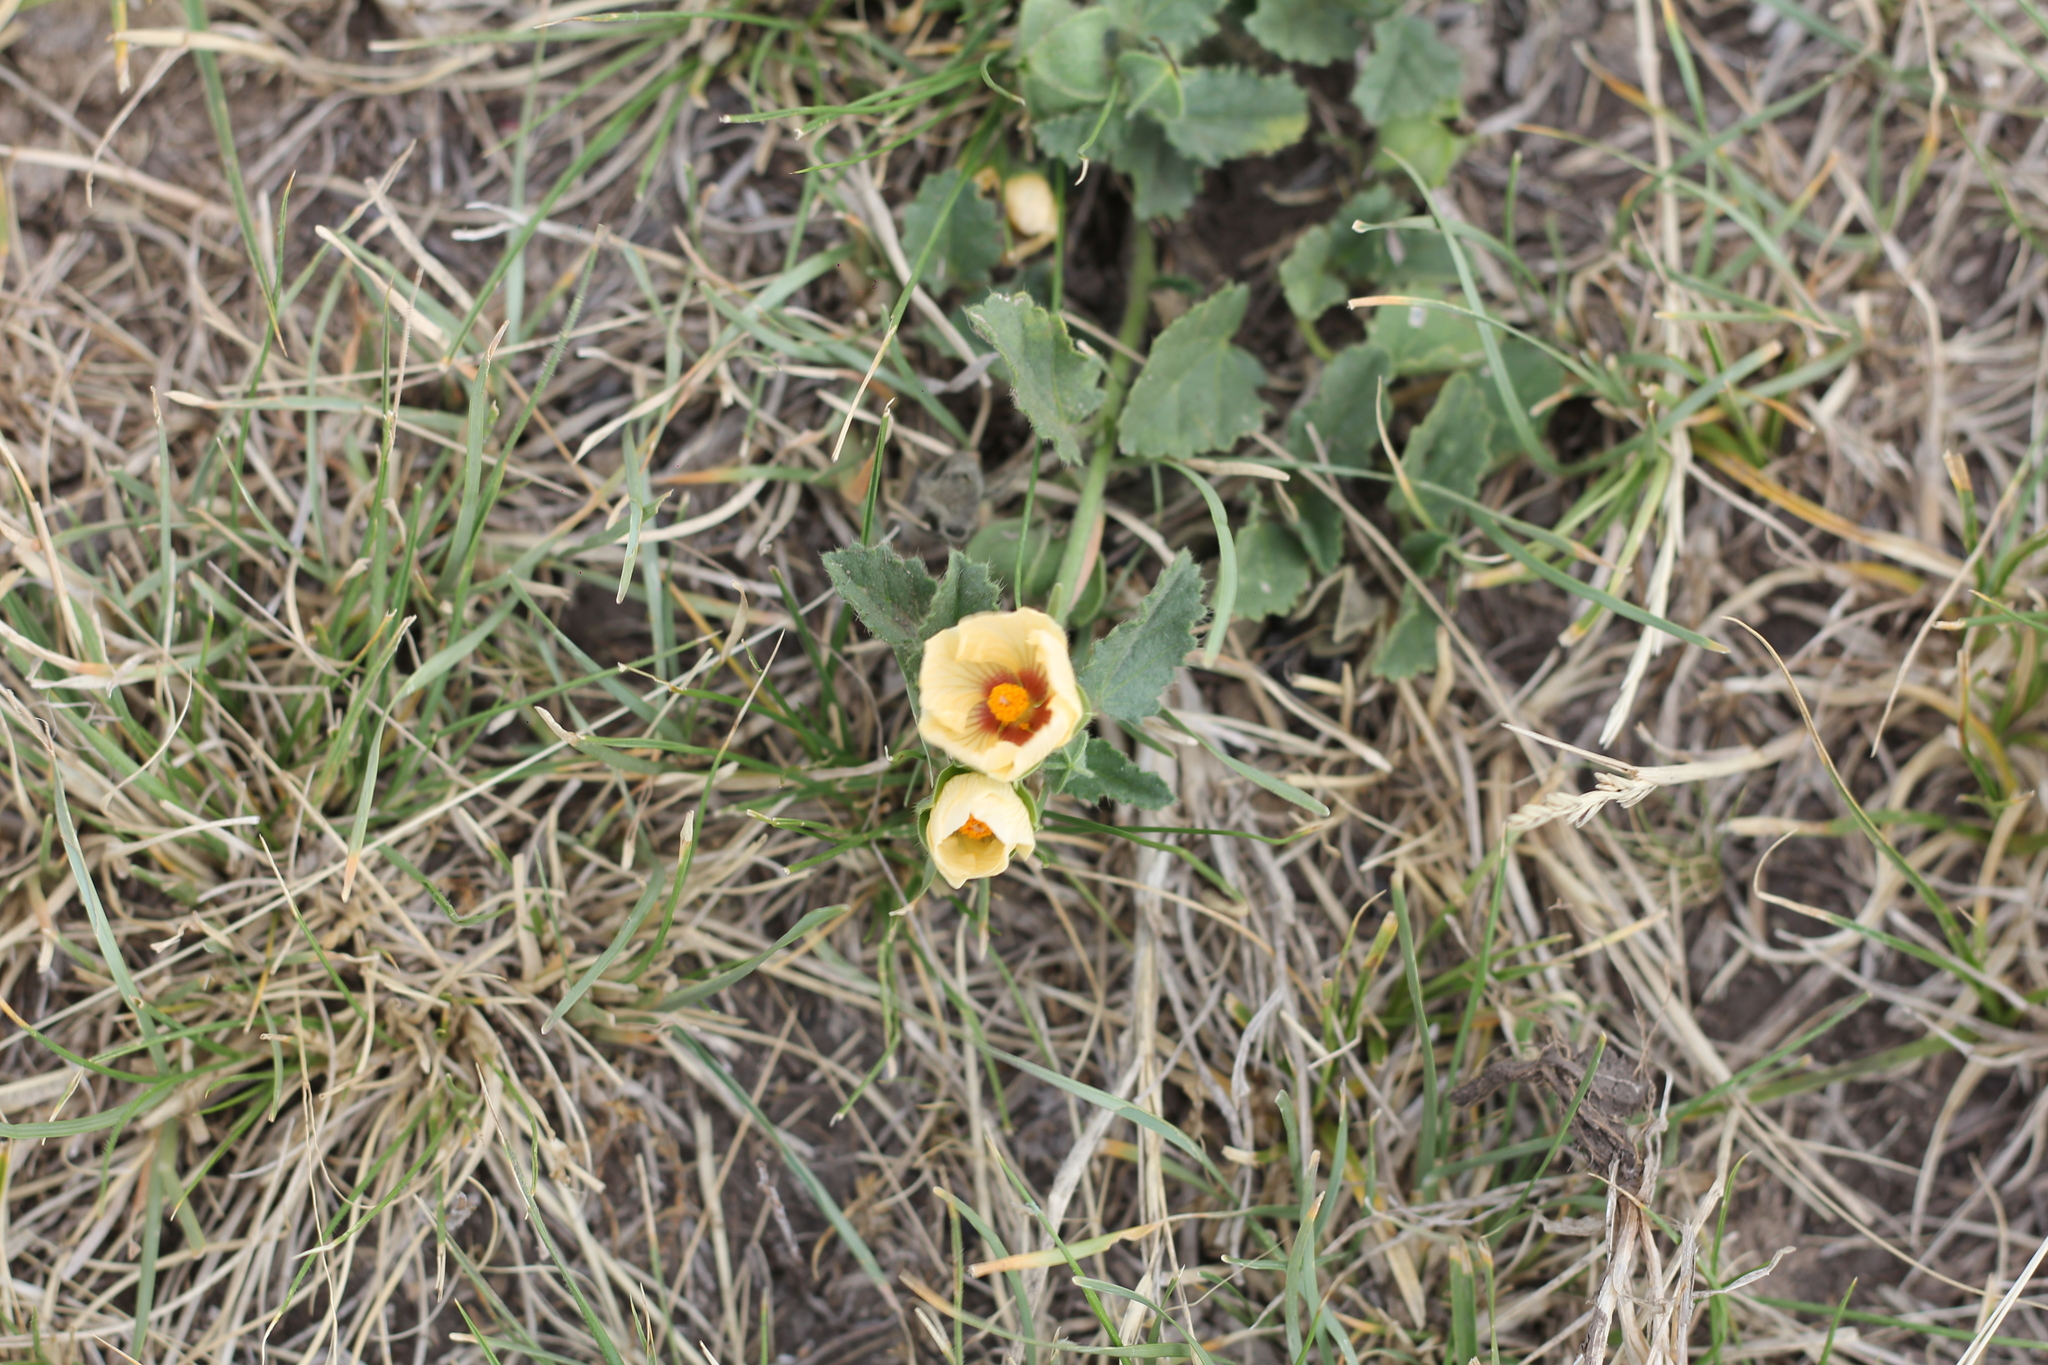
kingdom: Plantae
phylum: Tracheophyta
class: Magnoliopsida
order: Malvales
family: Malvaceae
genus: Rhynchosida
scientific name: Rhynchosida physocalyx
